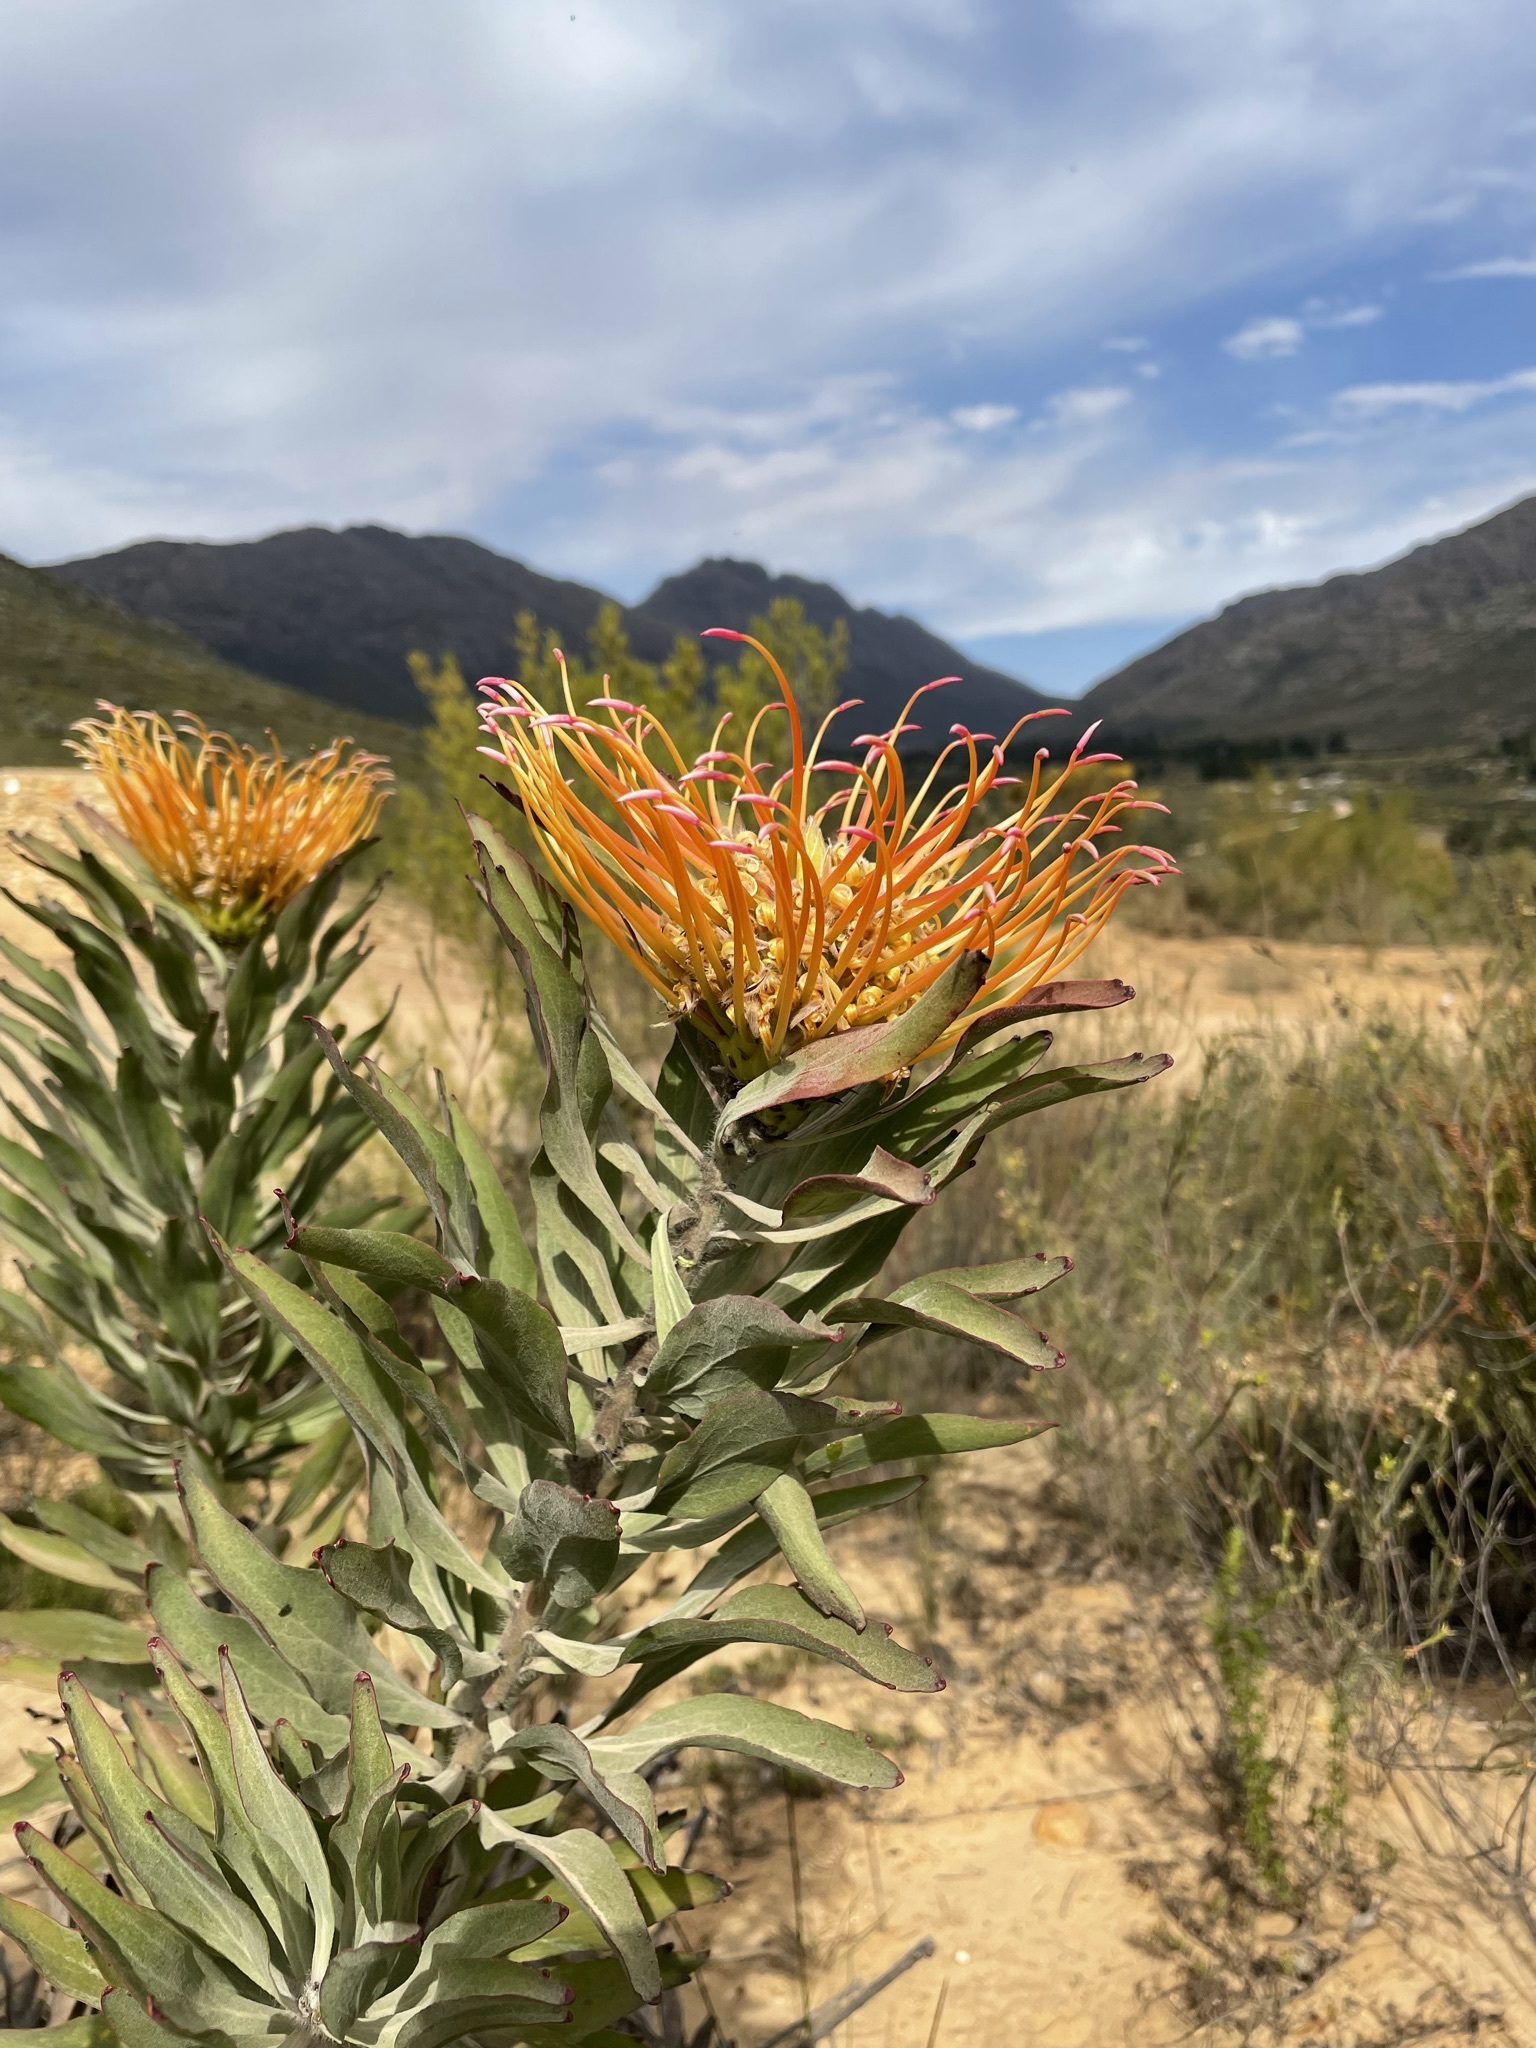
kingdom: Plantae
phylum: Tracheophyta
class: Magnoliopsida
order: Proteales
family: Proteaceae
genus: Leucospermum
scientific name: Leucospermum catherinae
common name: Catherine-wheel pincushion
